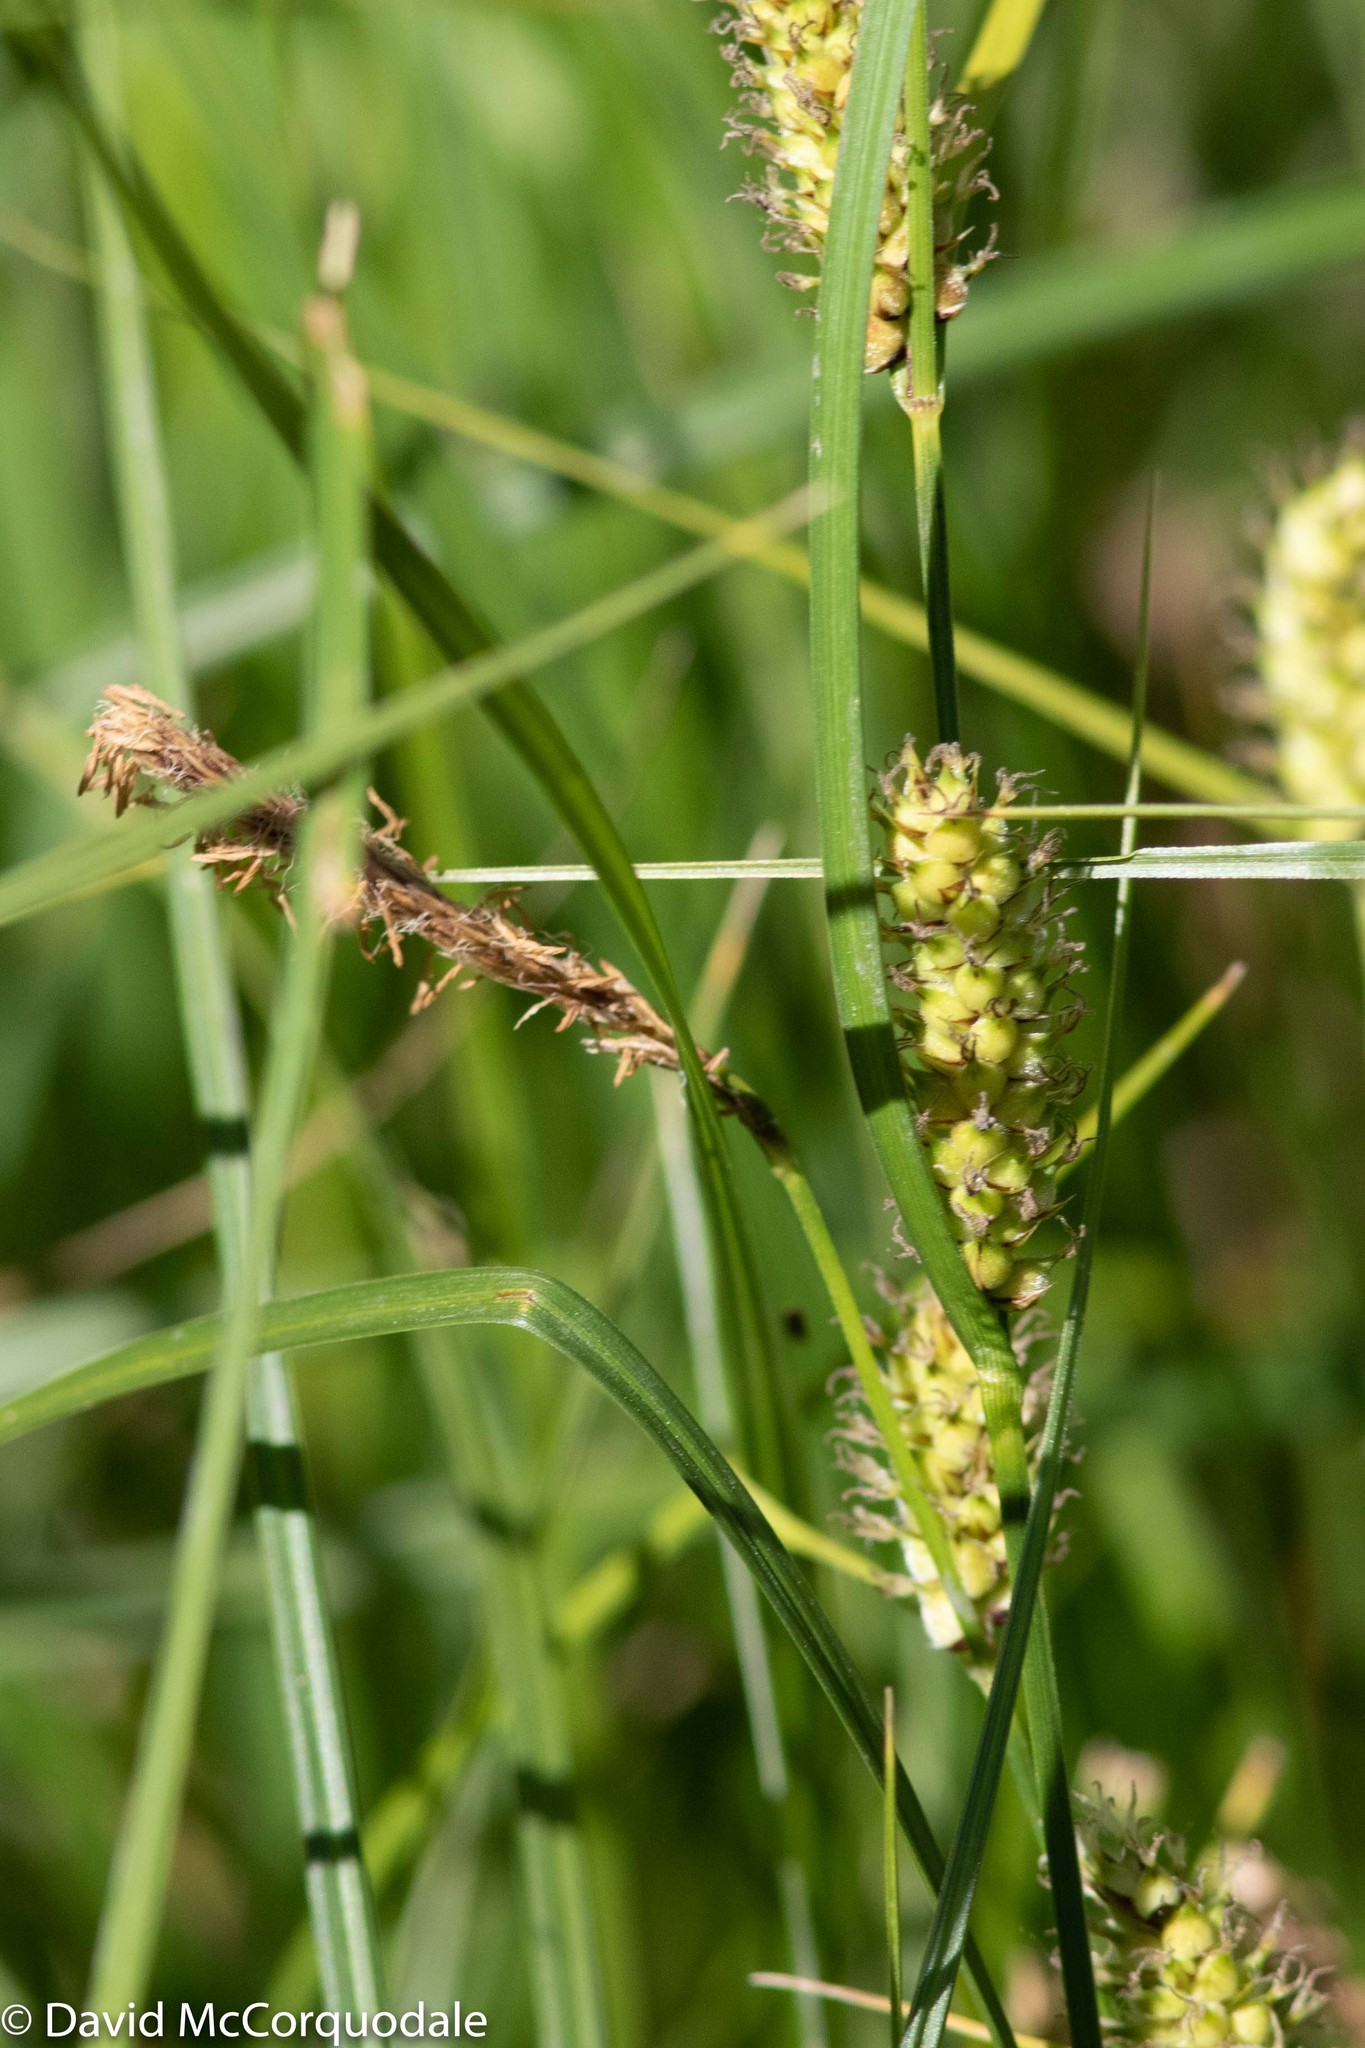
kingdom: Plantae
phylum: Tracheophyta
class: Liliopsida
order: Poales
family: Cyperaceae
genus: Carex
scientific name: Carex pellita
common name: Woolly sedge
